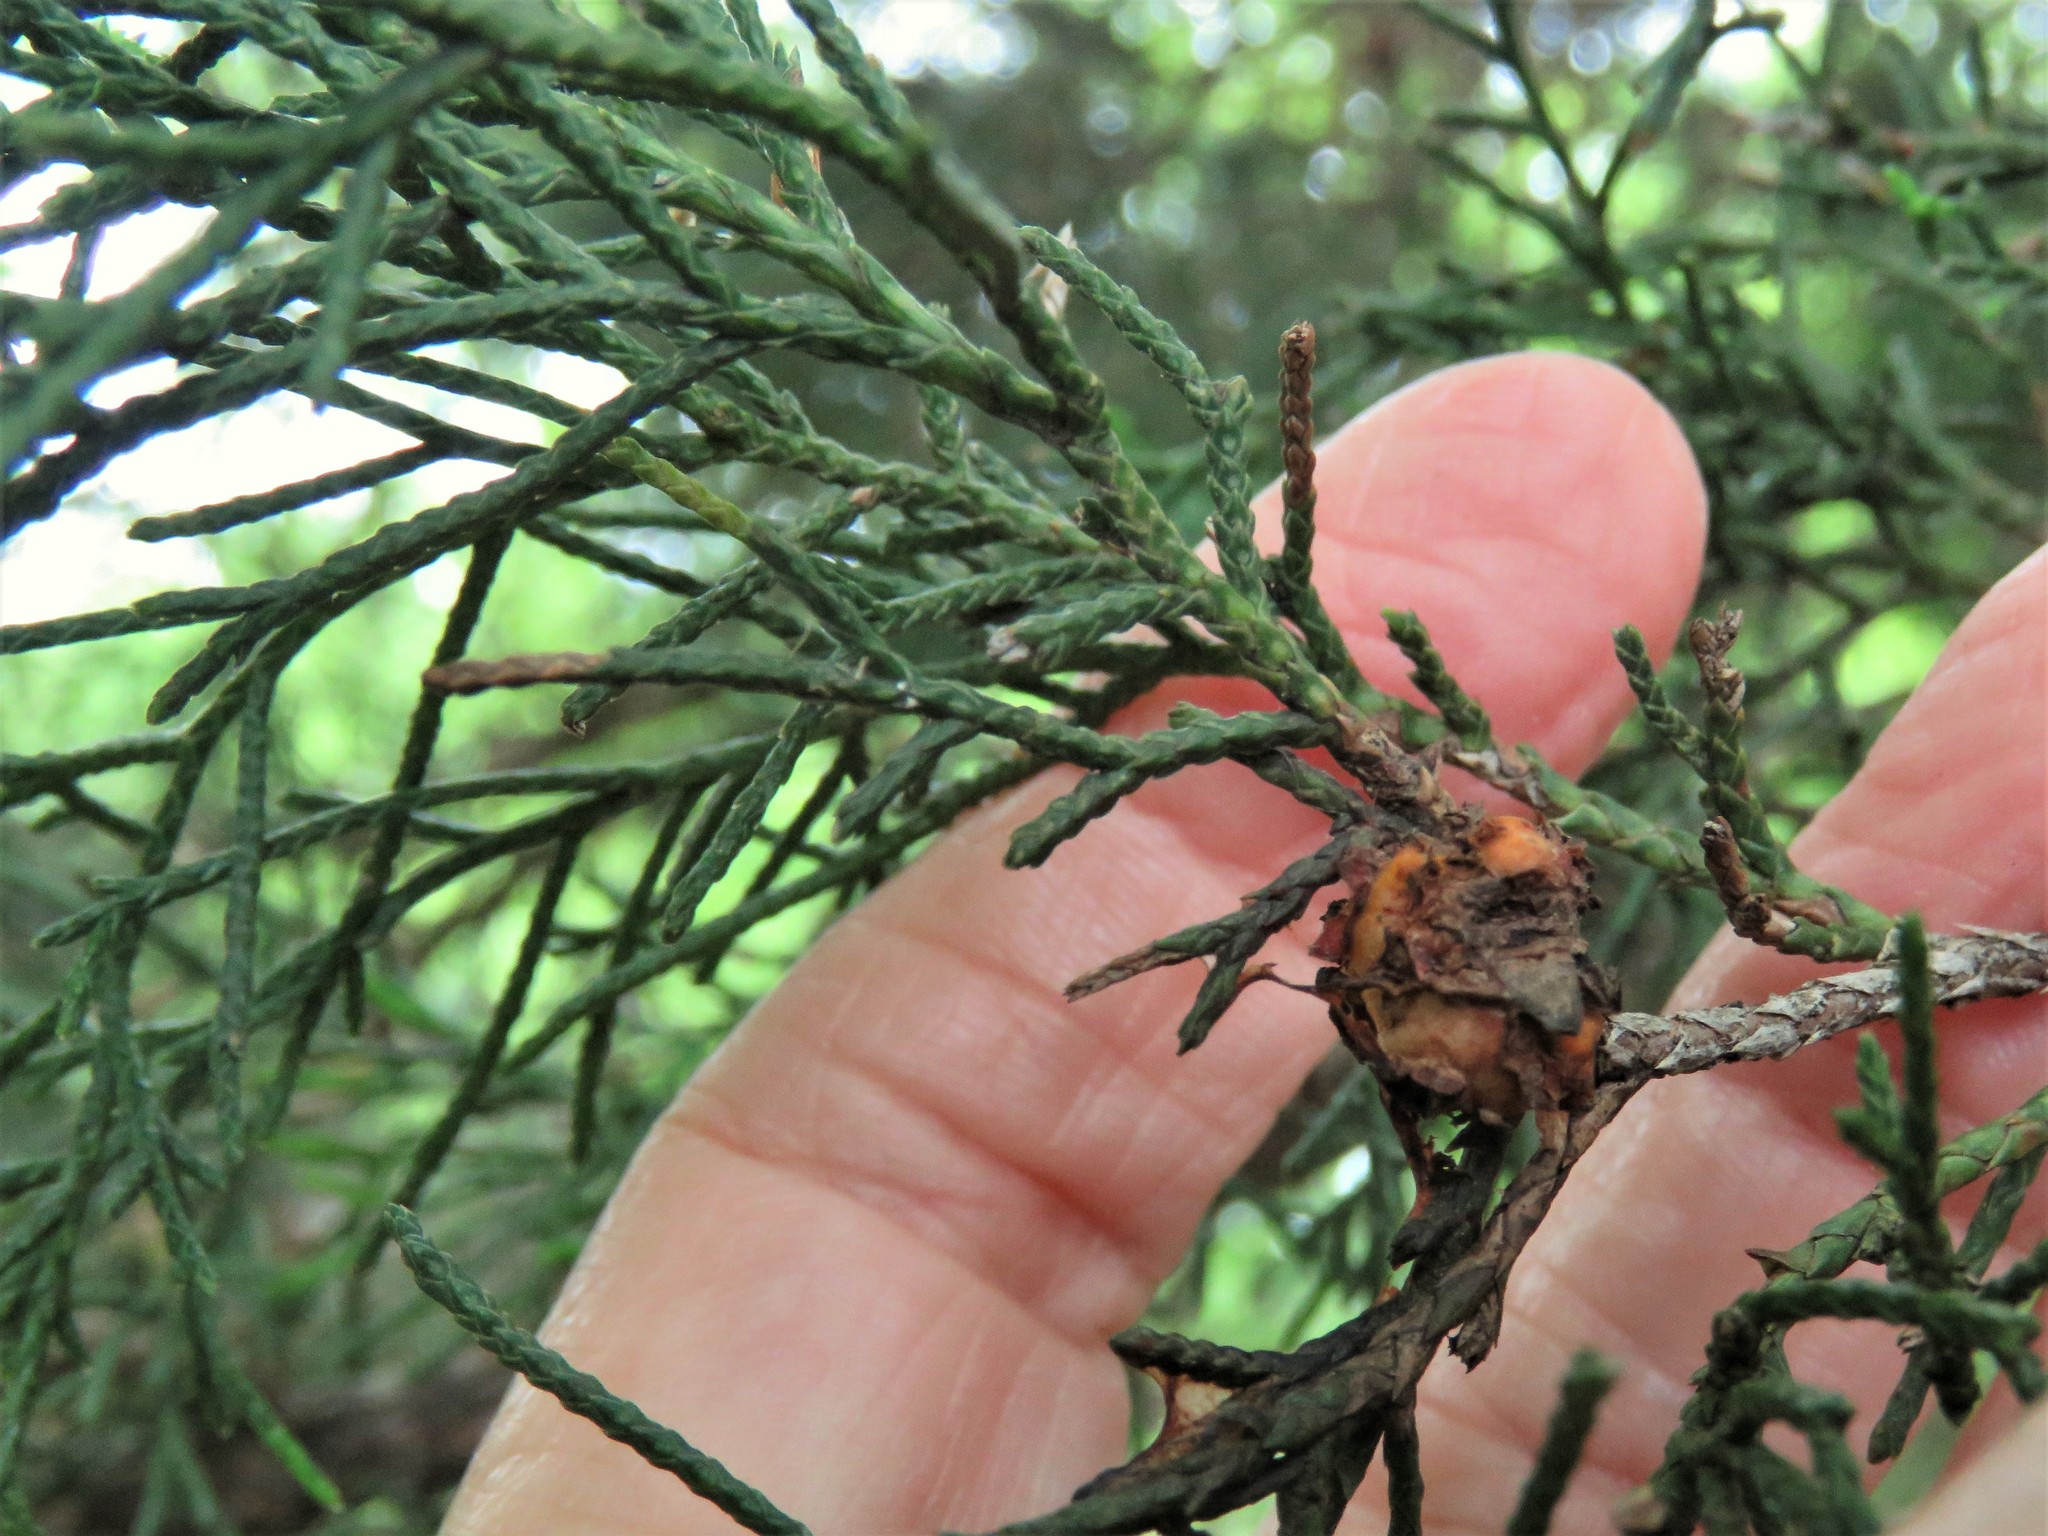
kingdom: Fungi
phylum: Basidiomycota
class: Pucciniomycetes
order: Pucciniales
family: Gymnosporangiaceae
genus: Gymnosporangium
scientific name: Gymnosporangium juniperi-virginianae
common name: Juniper-apple rust
